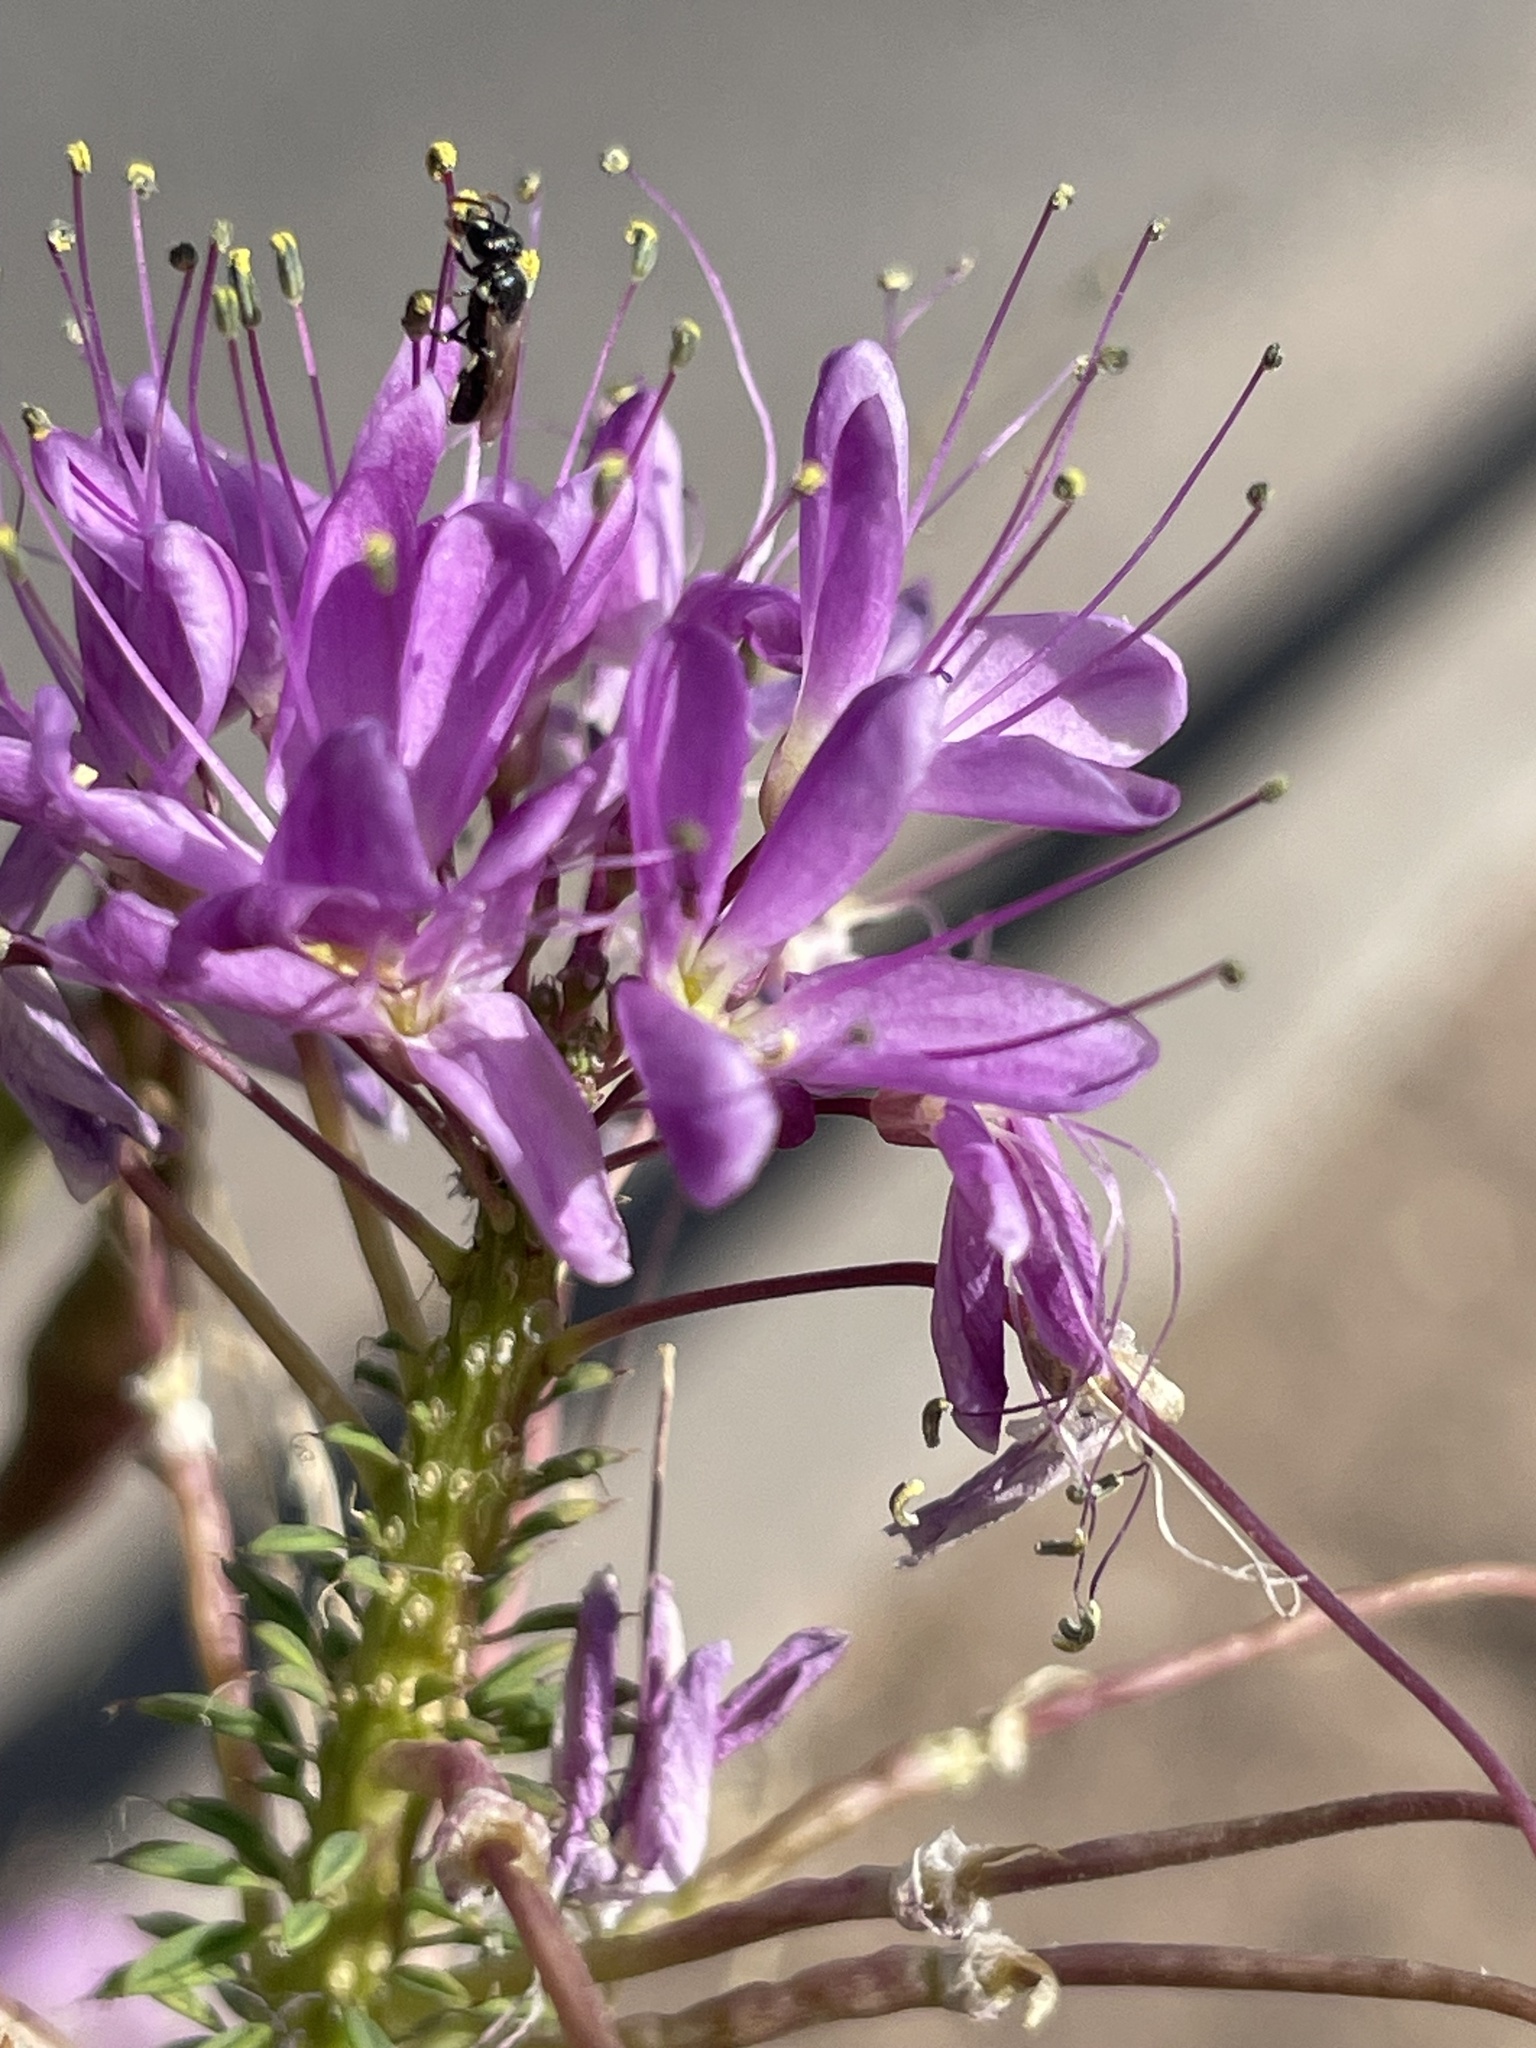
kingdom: Plantae
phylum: Tracheophyta
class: Magnoliopsida
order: Brassicales
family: Cleomaceae
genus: Cleomella
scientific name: Cleomella serrulata
